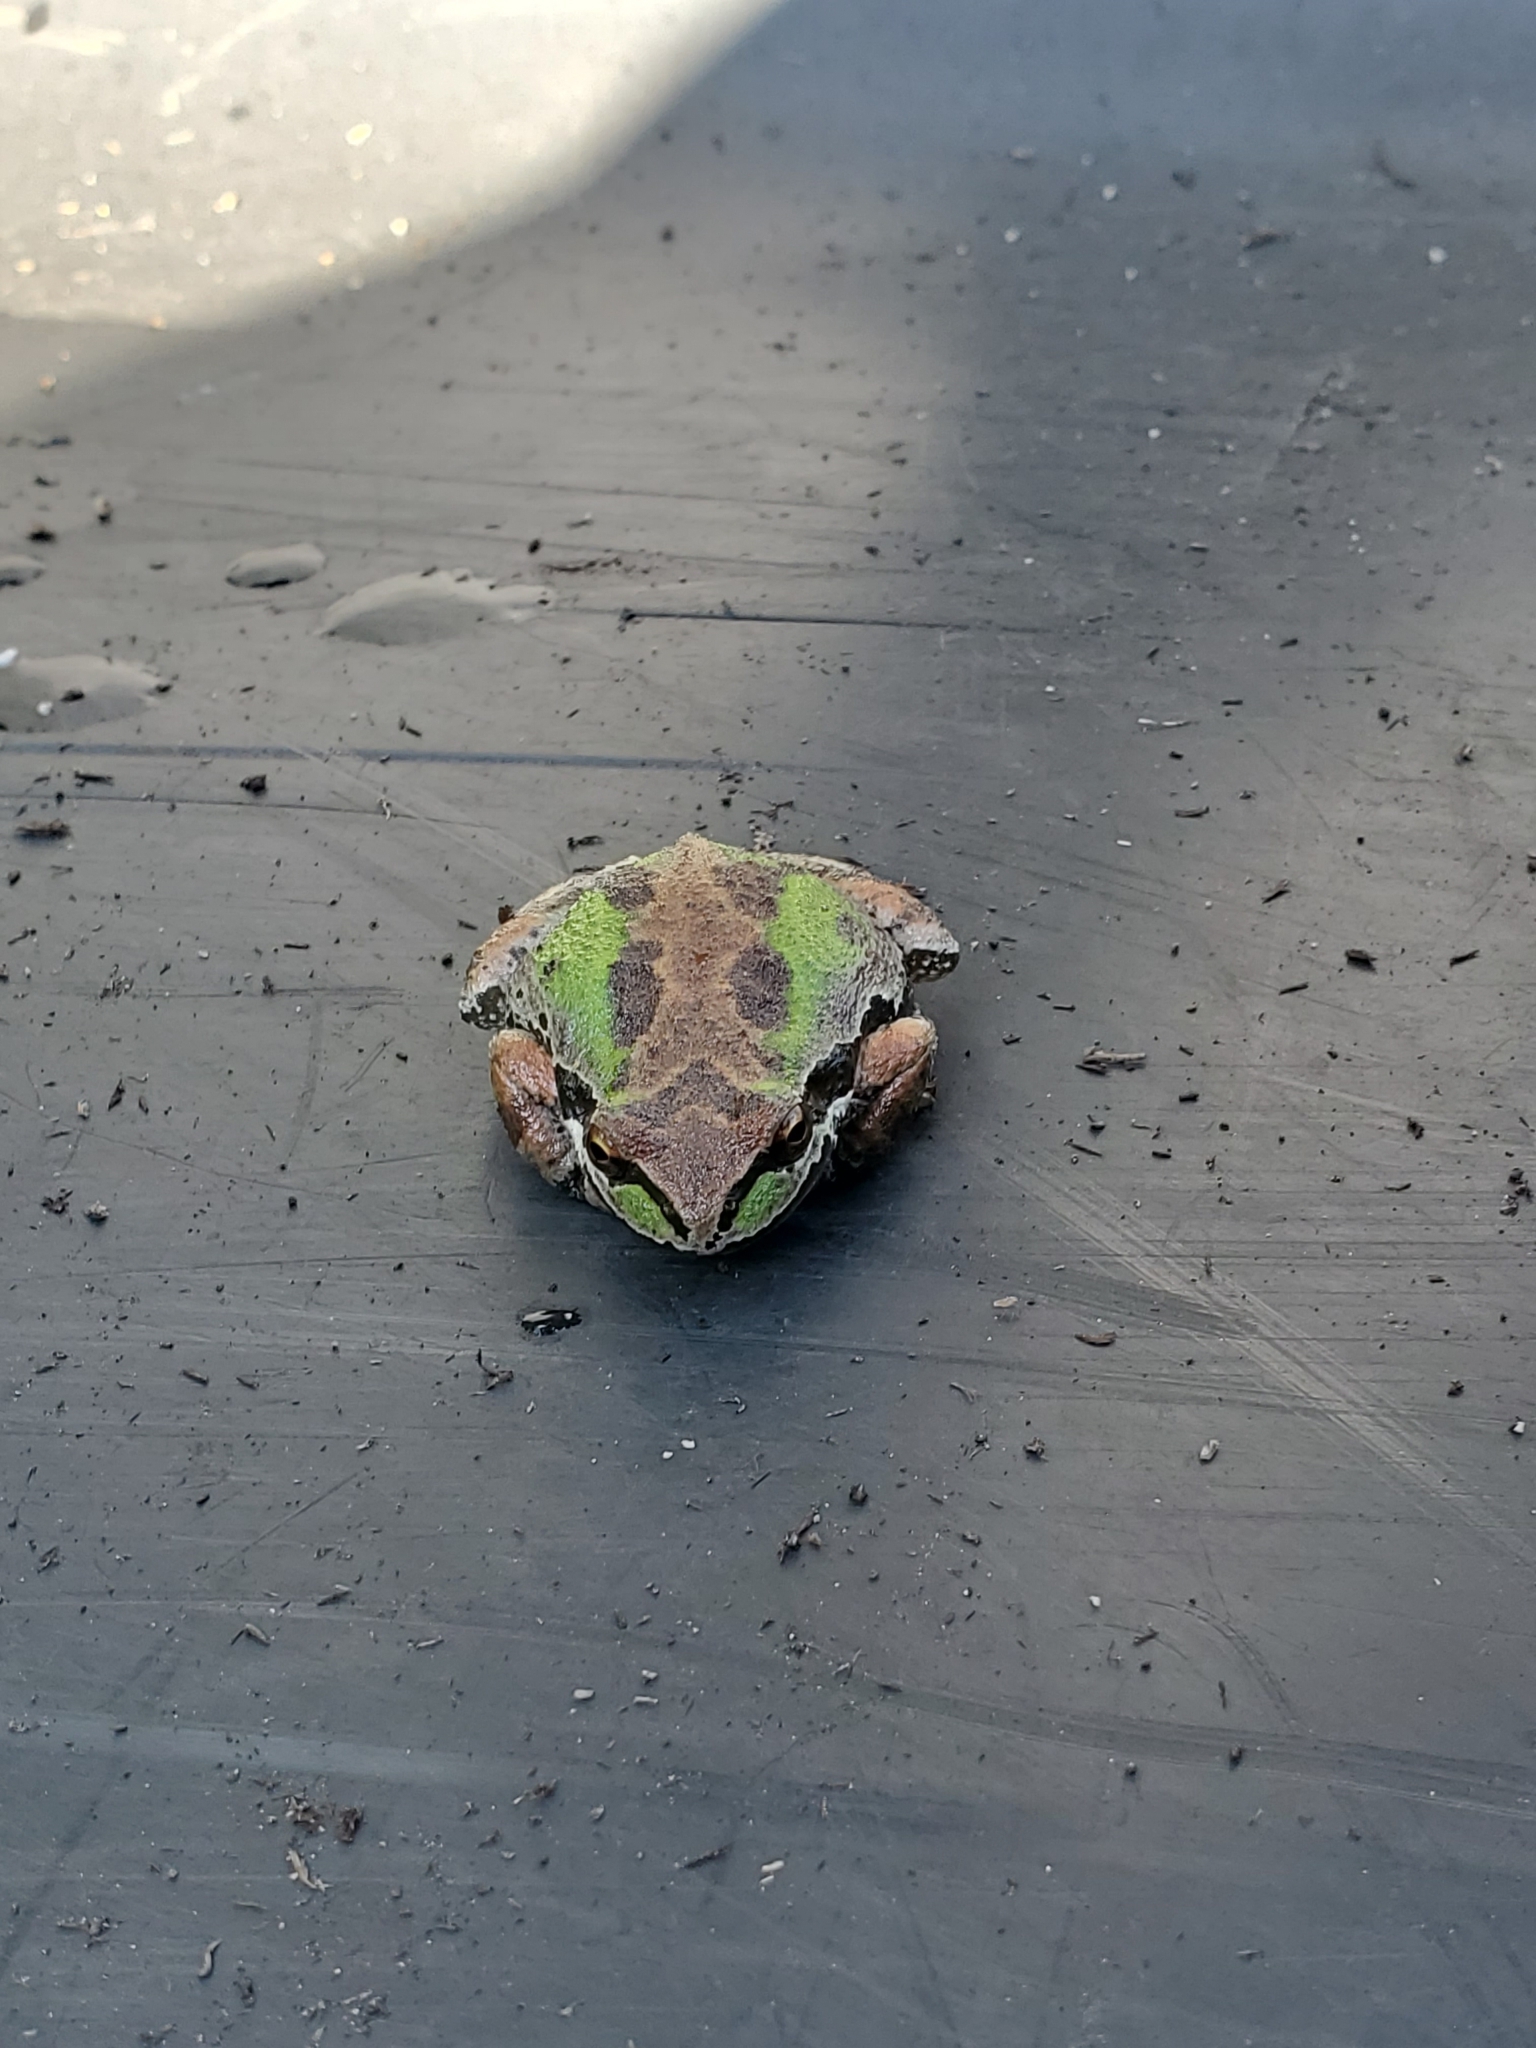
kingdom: Animalia
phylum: Chordata
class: Amphibia
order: Anura
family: Hylidae
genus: Pseudacris
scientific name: Pseudacris regilla
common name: Pacific chorus frog
